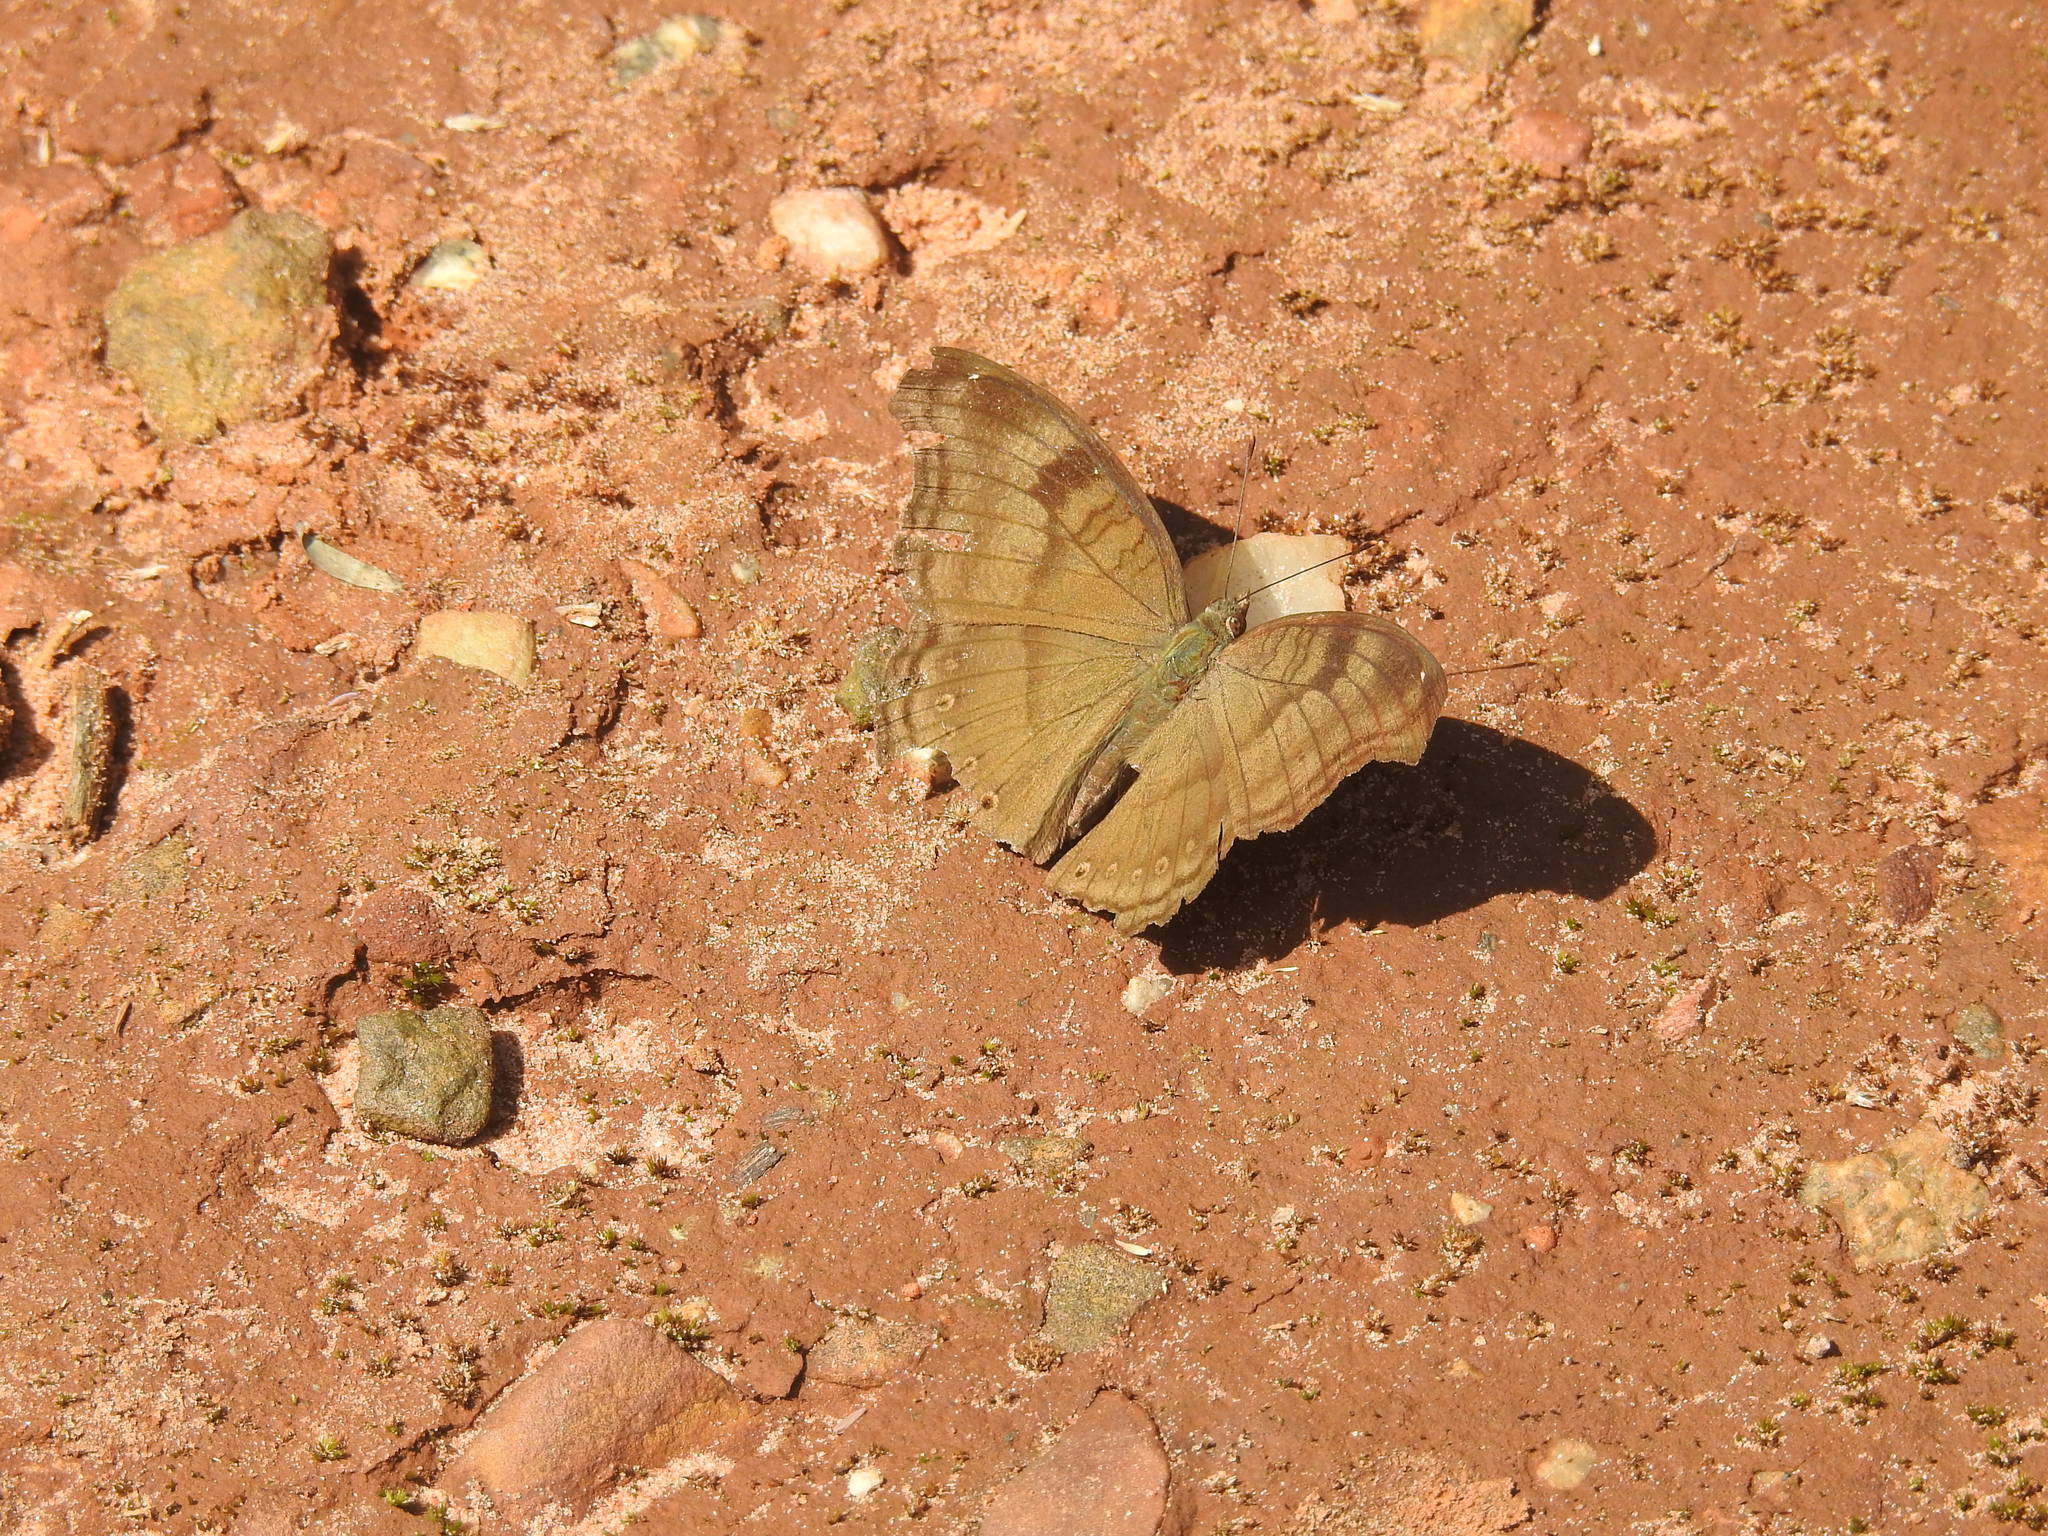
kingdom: Animalia
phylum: Arthropoda
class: Insecta
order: Lepidoptera
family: Nymphalidae
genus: Junonia
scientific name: Junonia iphita
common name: Chocolate pansy
